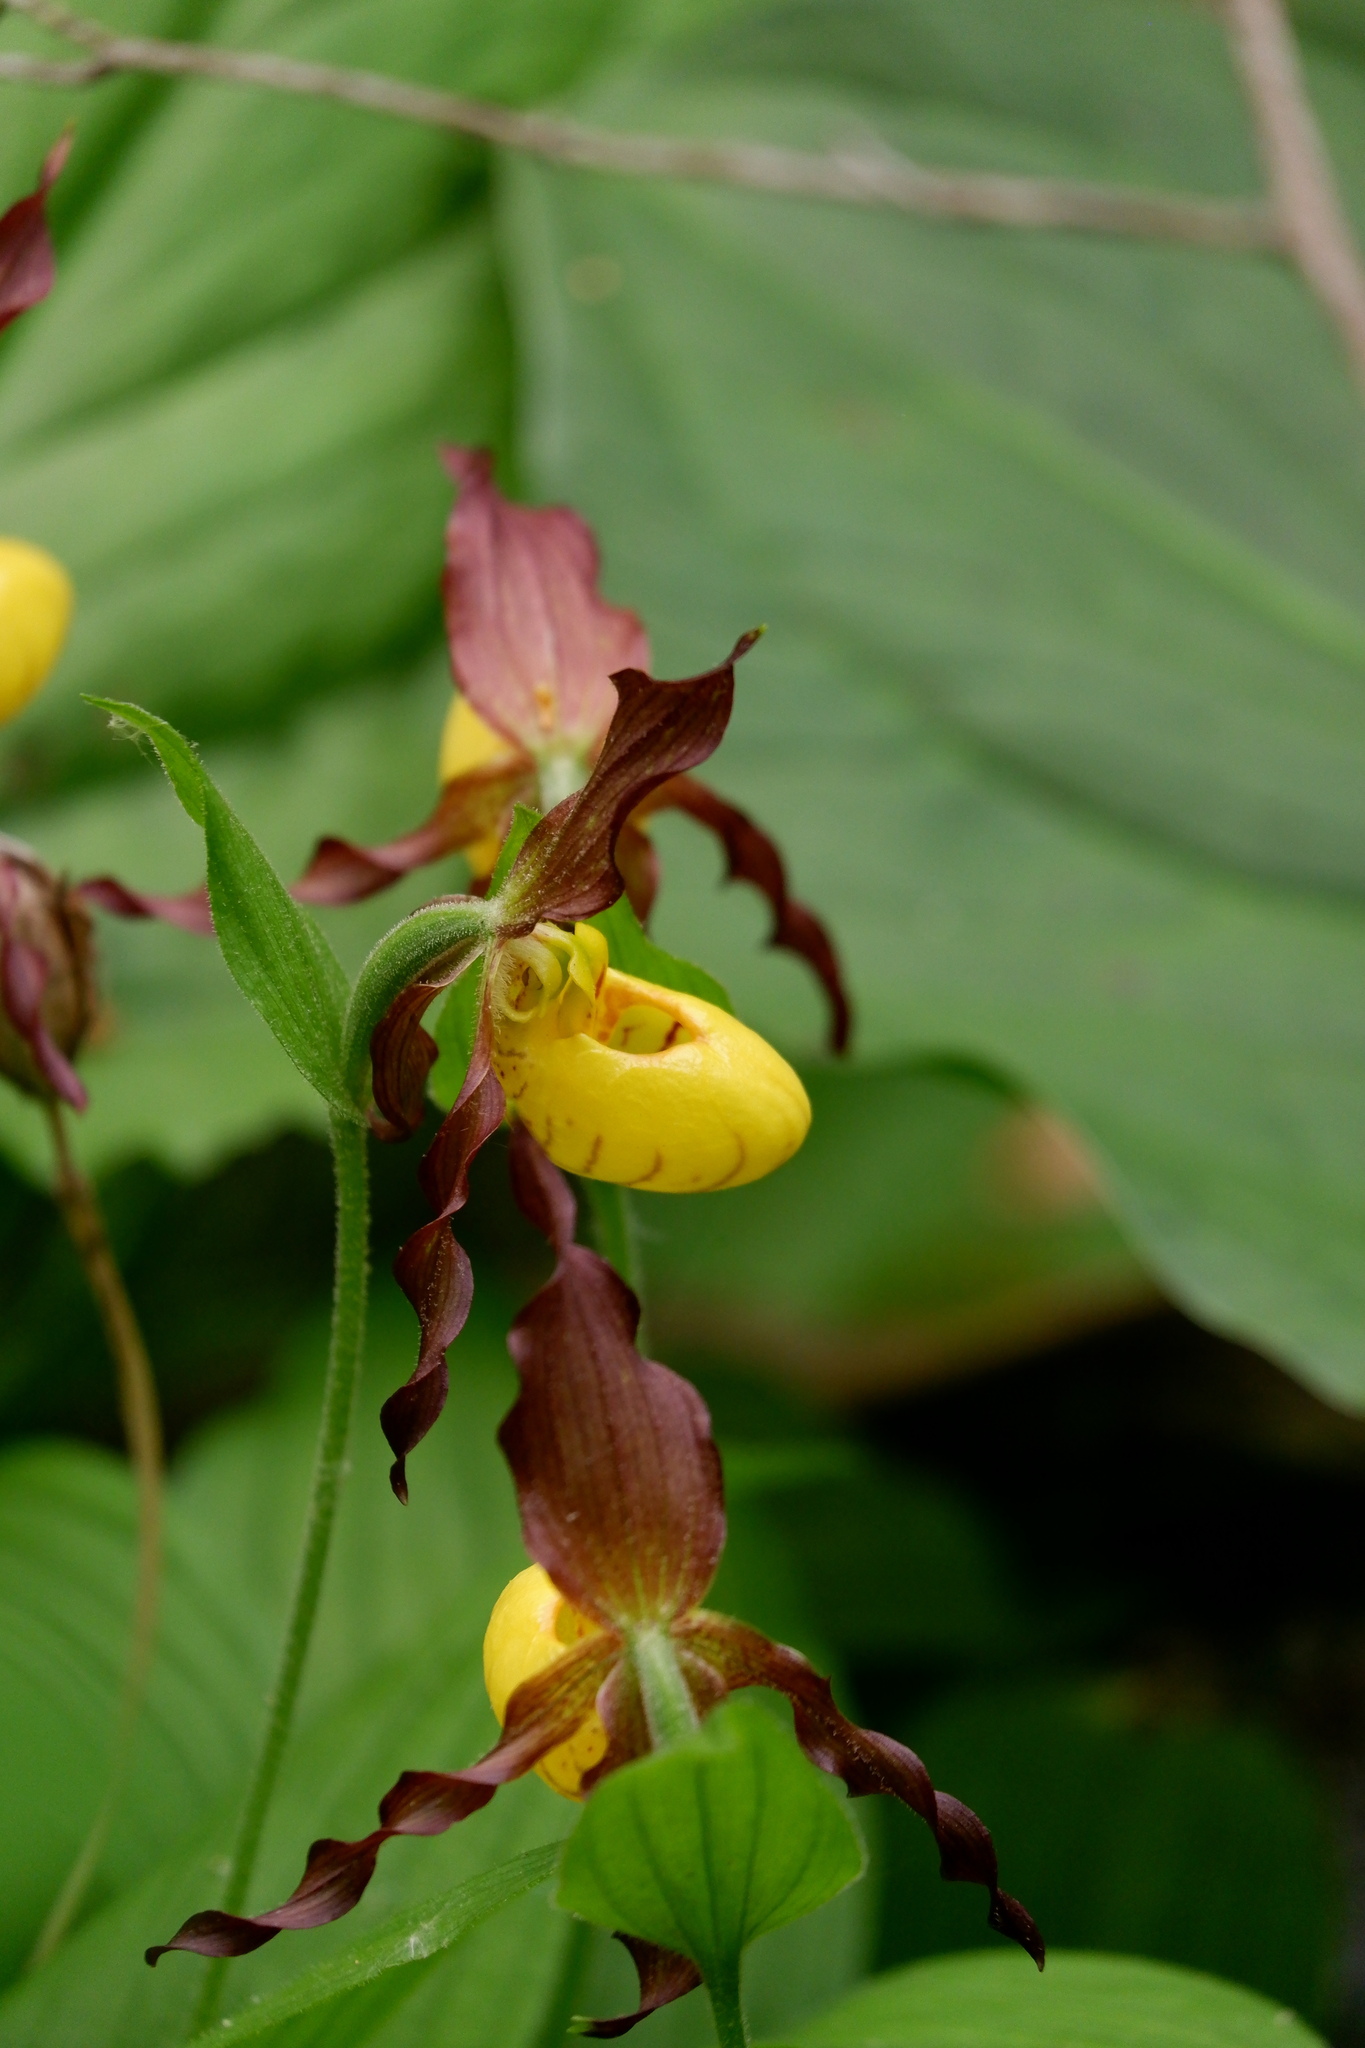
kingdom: Plantae
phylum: Tracheophyta
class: Liliopsida
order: Asparagales
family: Orchidaceae
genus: Cypripedium
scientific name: Cypripedium parviflorum
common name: American yellow lady's-slipper
